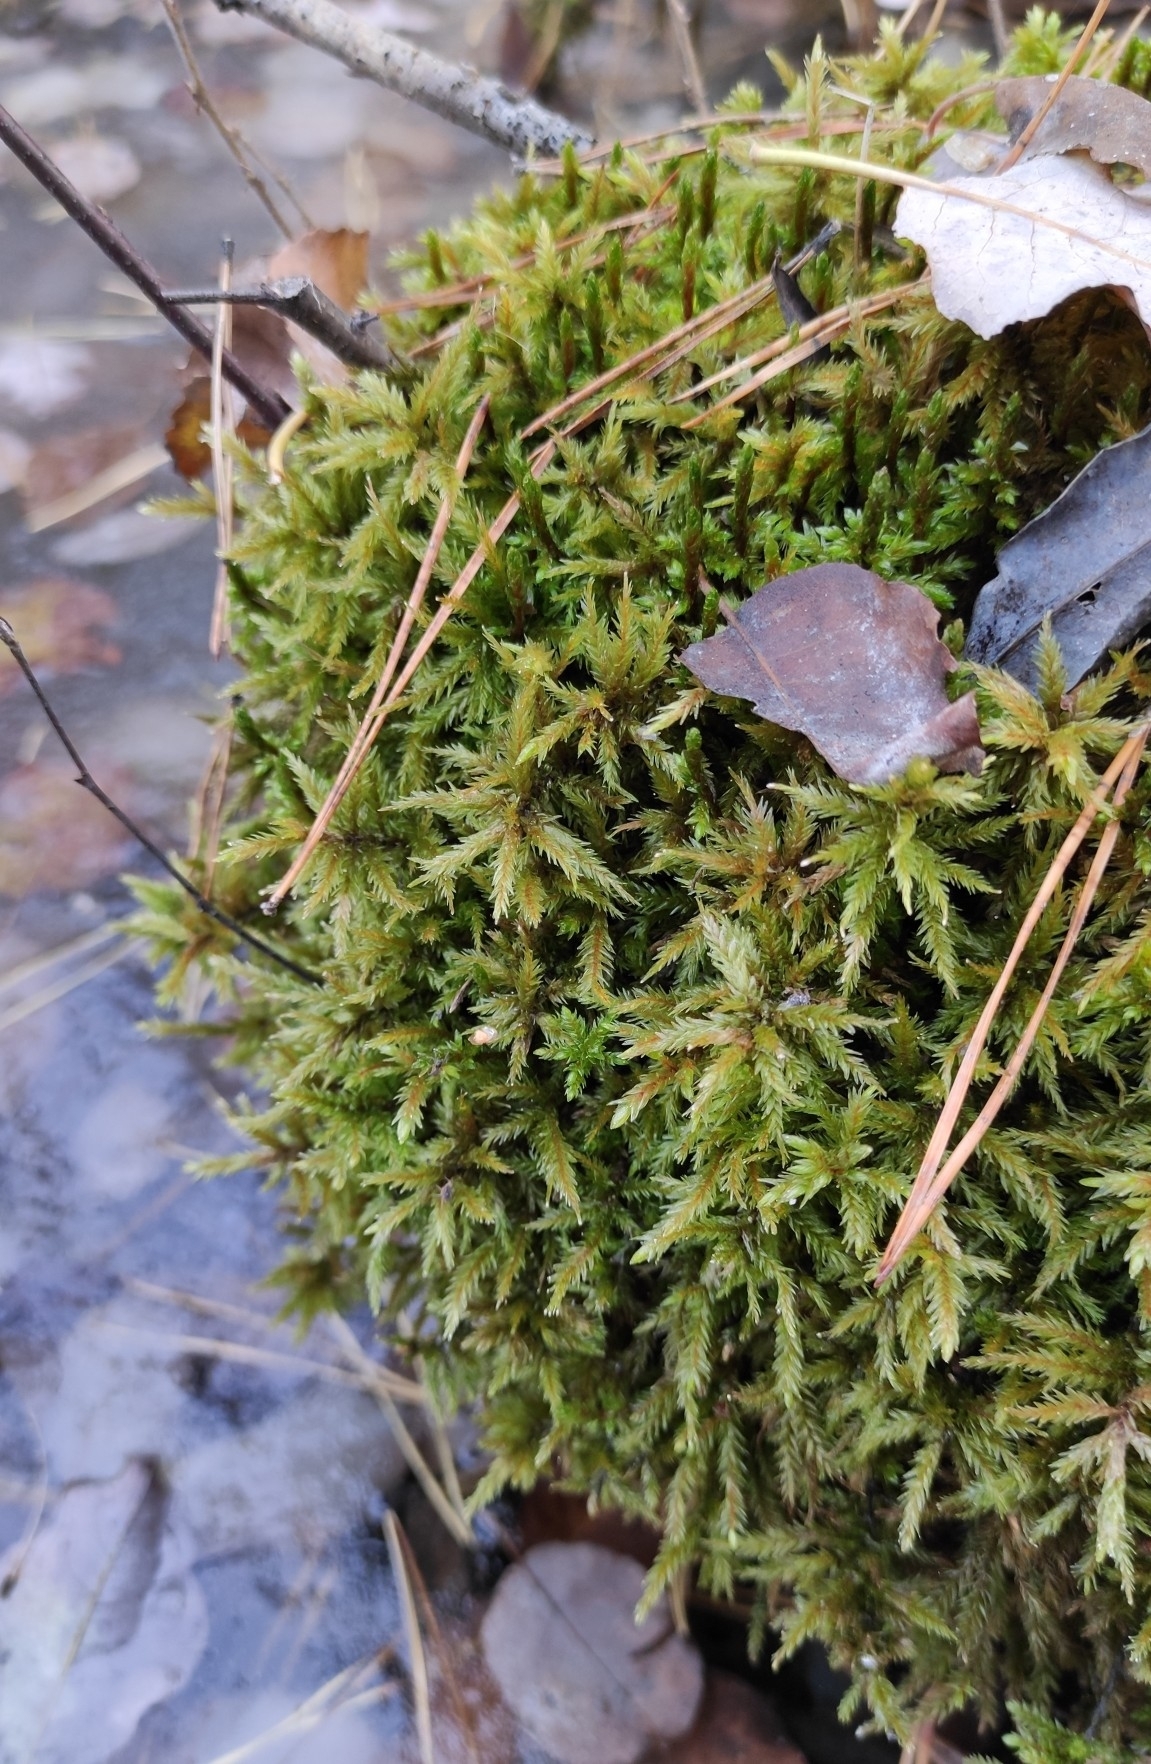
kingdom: Plantae
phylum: Bryophyta
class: Bryopsida
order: Hypnales
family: Climaciaceae
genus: Climacium
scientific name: Climacium dendroides
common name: Northern tree moss
